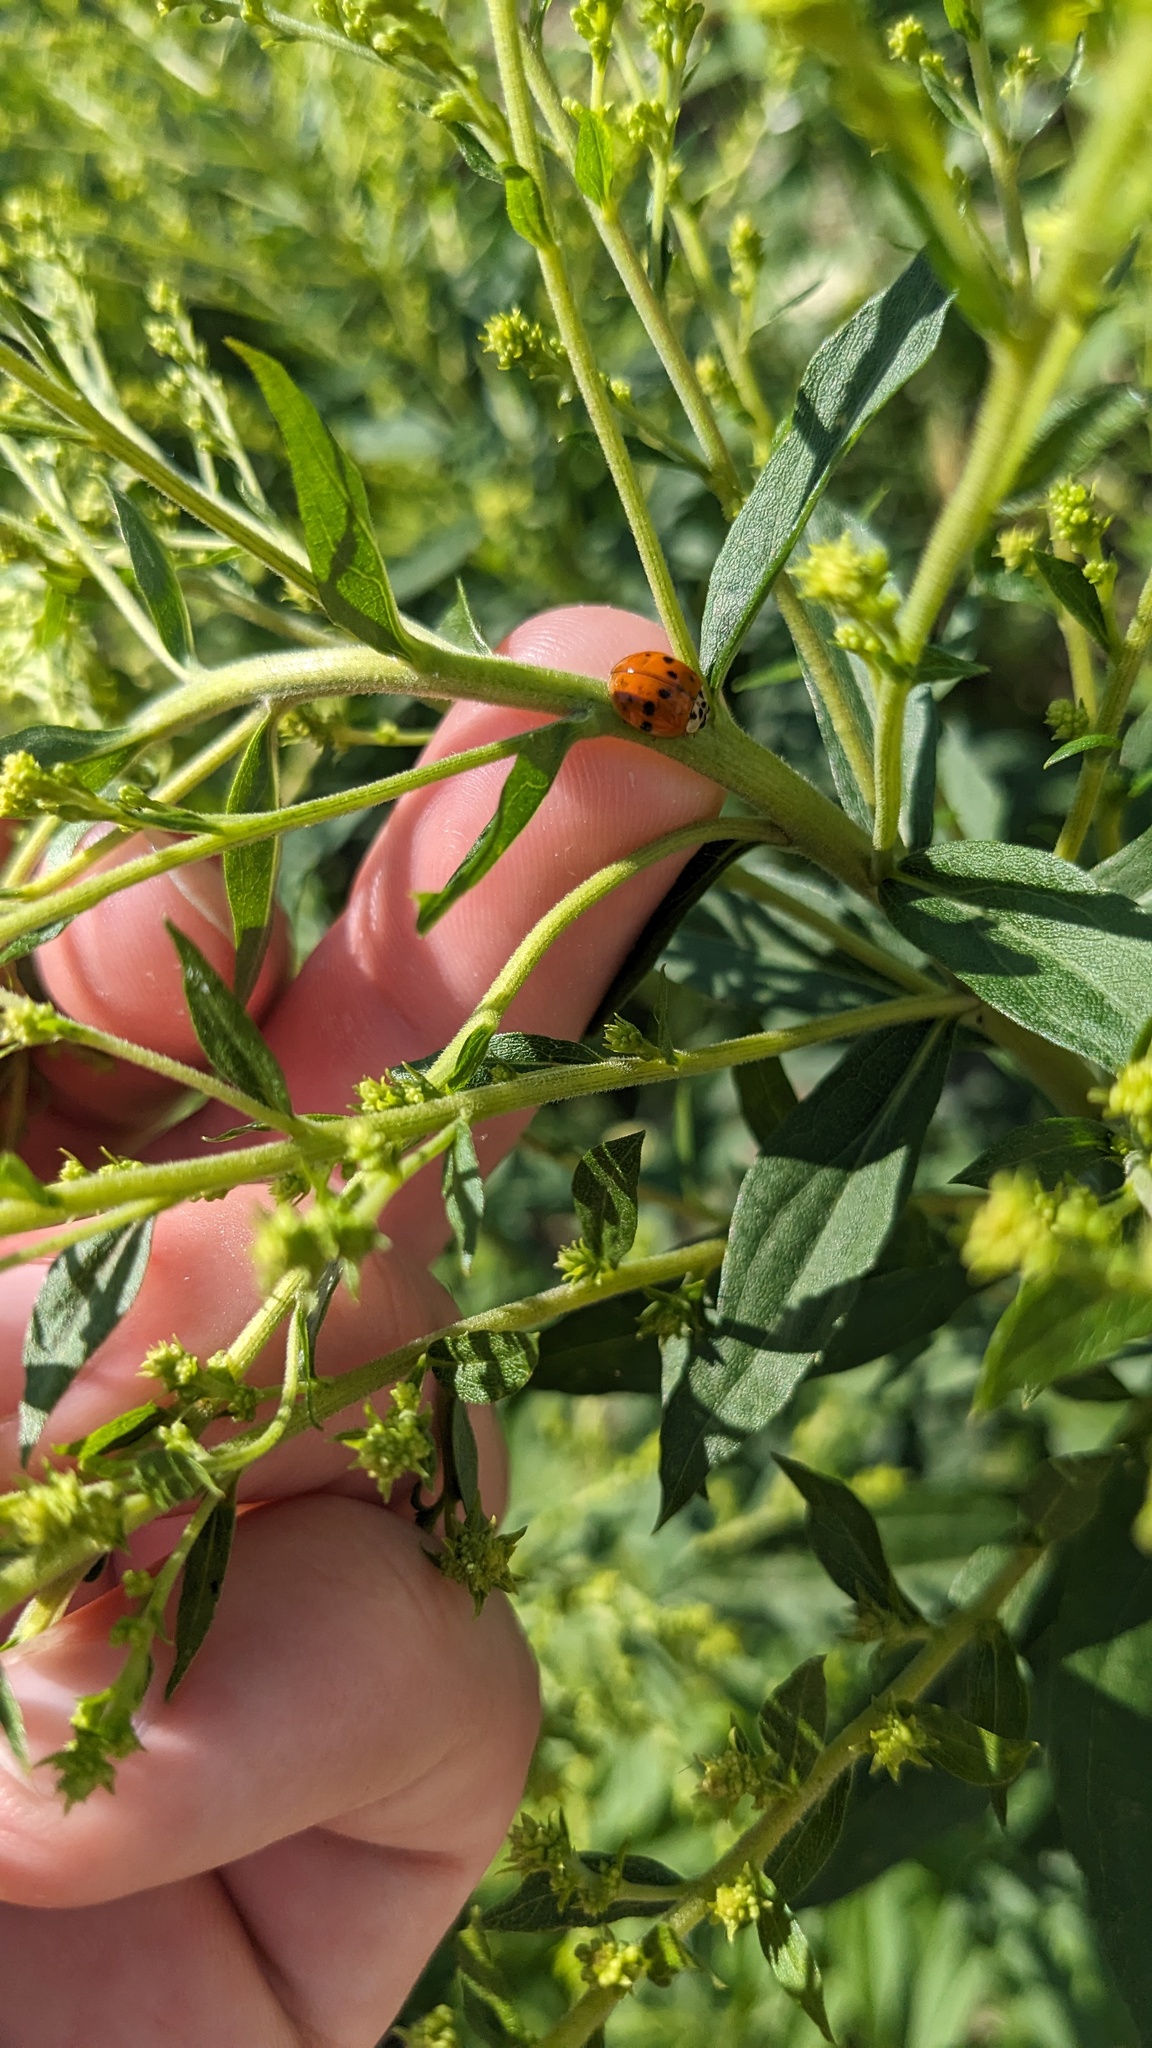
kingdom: Animalia
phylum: Arthropoda
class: Insecta
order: Coleoptera
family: Coccinellidae
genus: Harmonia
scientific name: Harmonia axyridis
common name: Harlequin ladybird
